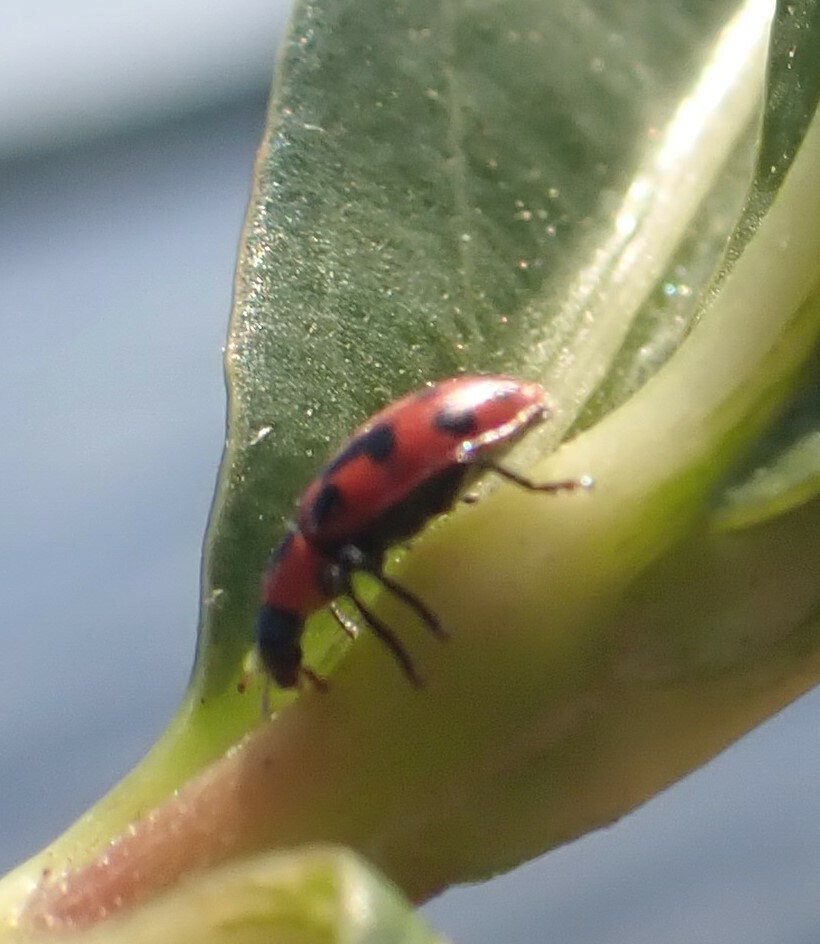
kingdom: Animalia
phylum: Arthropoda
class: Insecta
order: Coleoptera
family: Coccinellidae
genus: Coleomegilla
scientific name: Coleomegilla maculata
